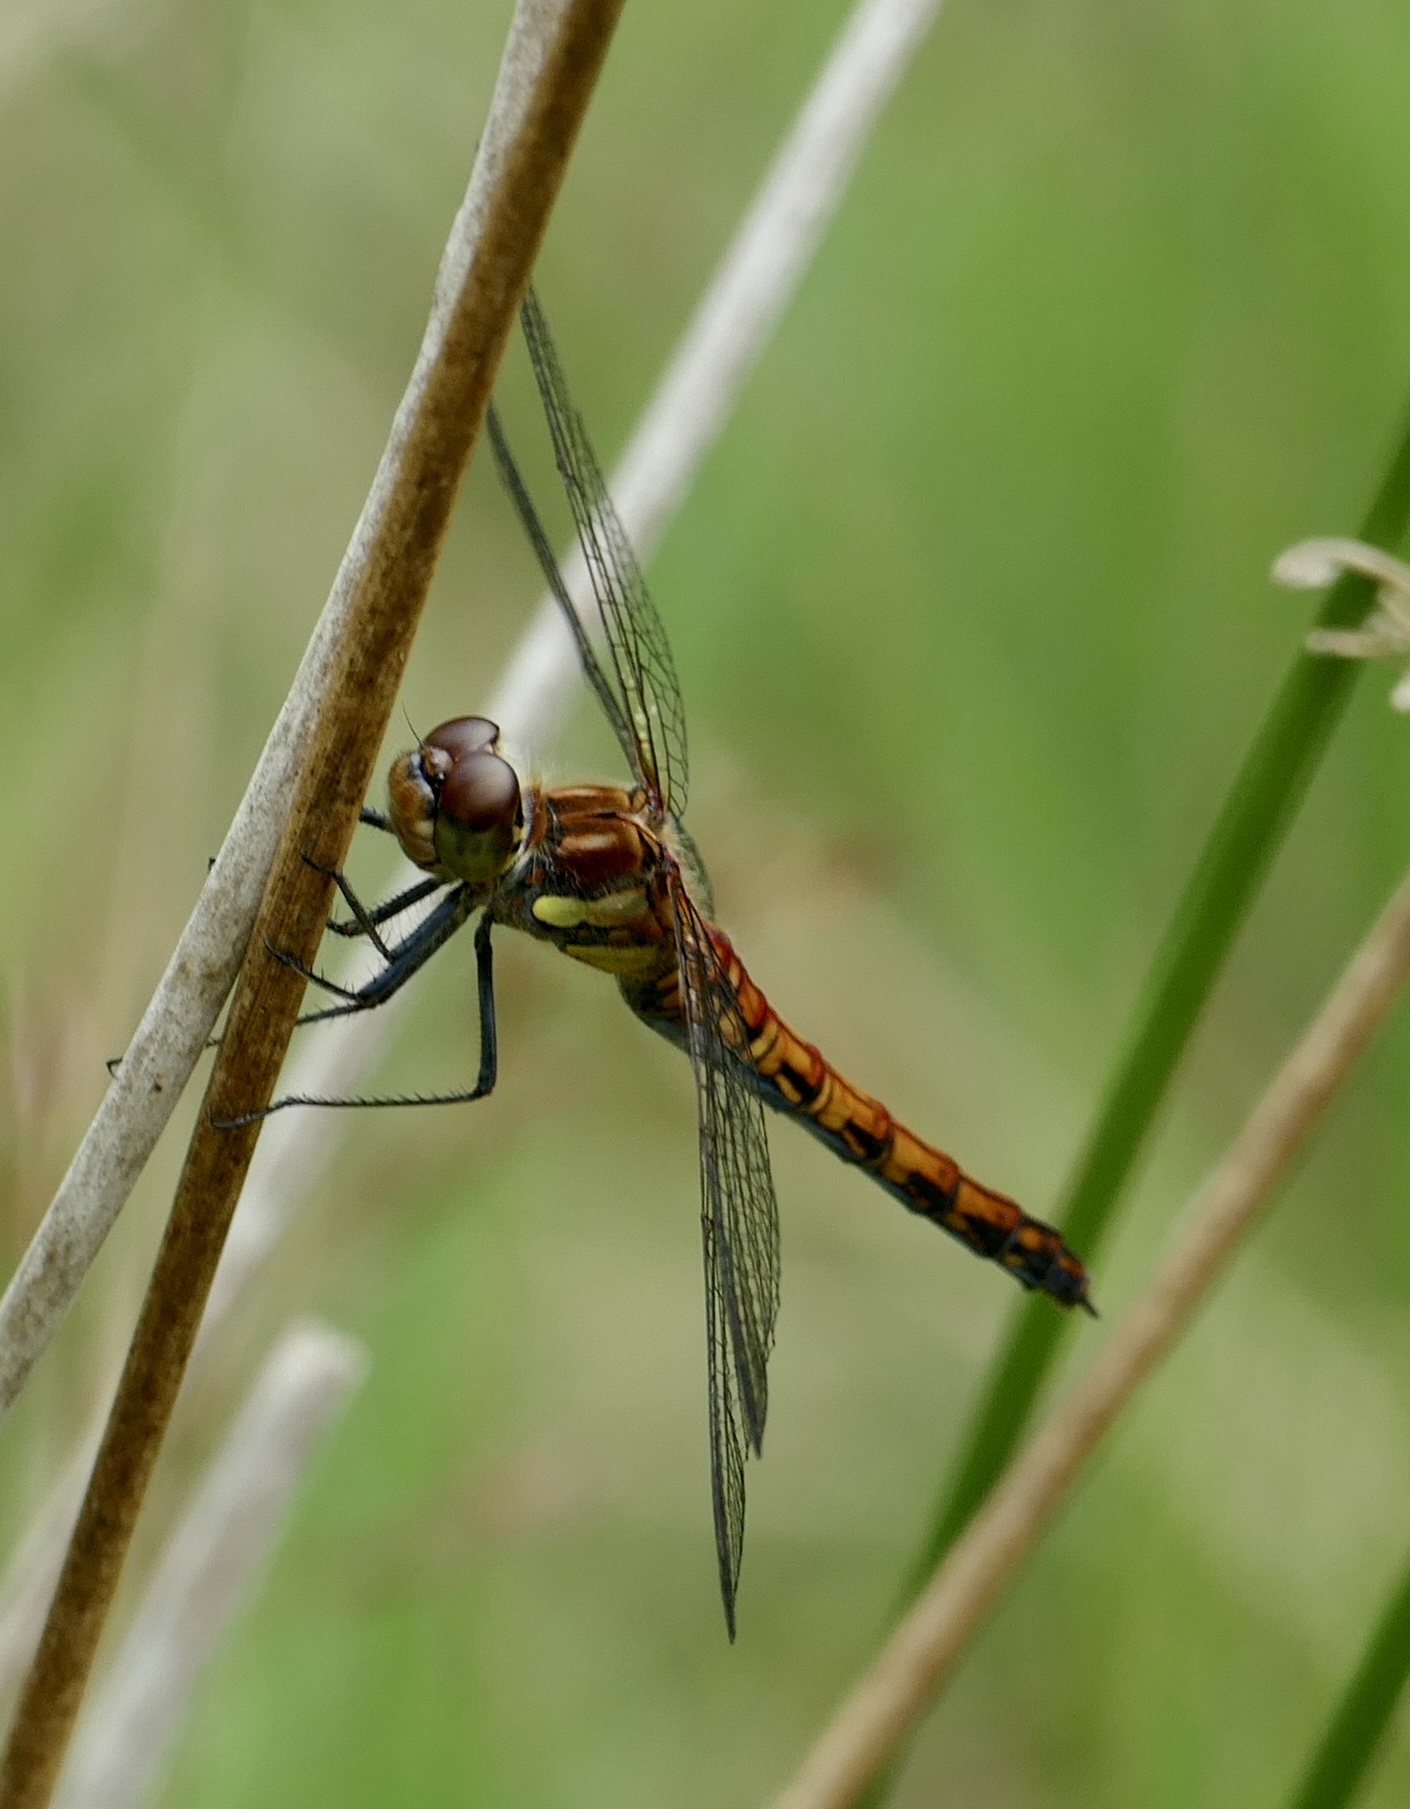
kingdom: Animalia
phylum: Arthropoda
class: Insecta
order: Odonata
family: Libellulidae
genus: Sympetrum
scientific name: Sympetrum striolatum
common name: Common darter
